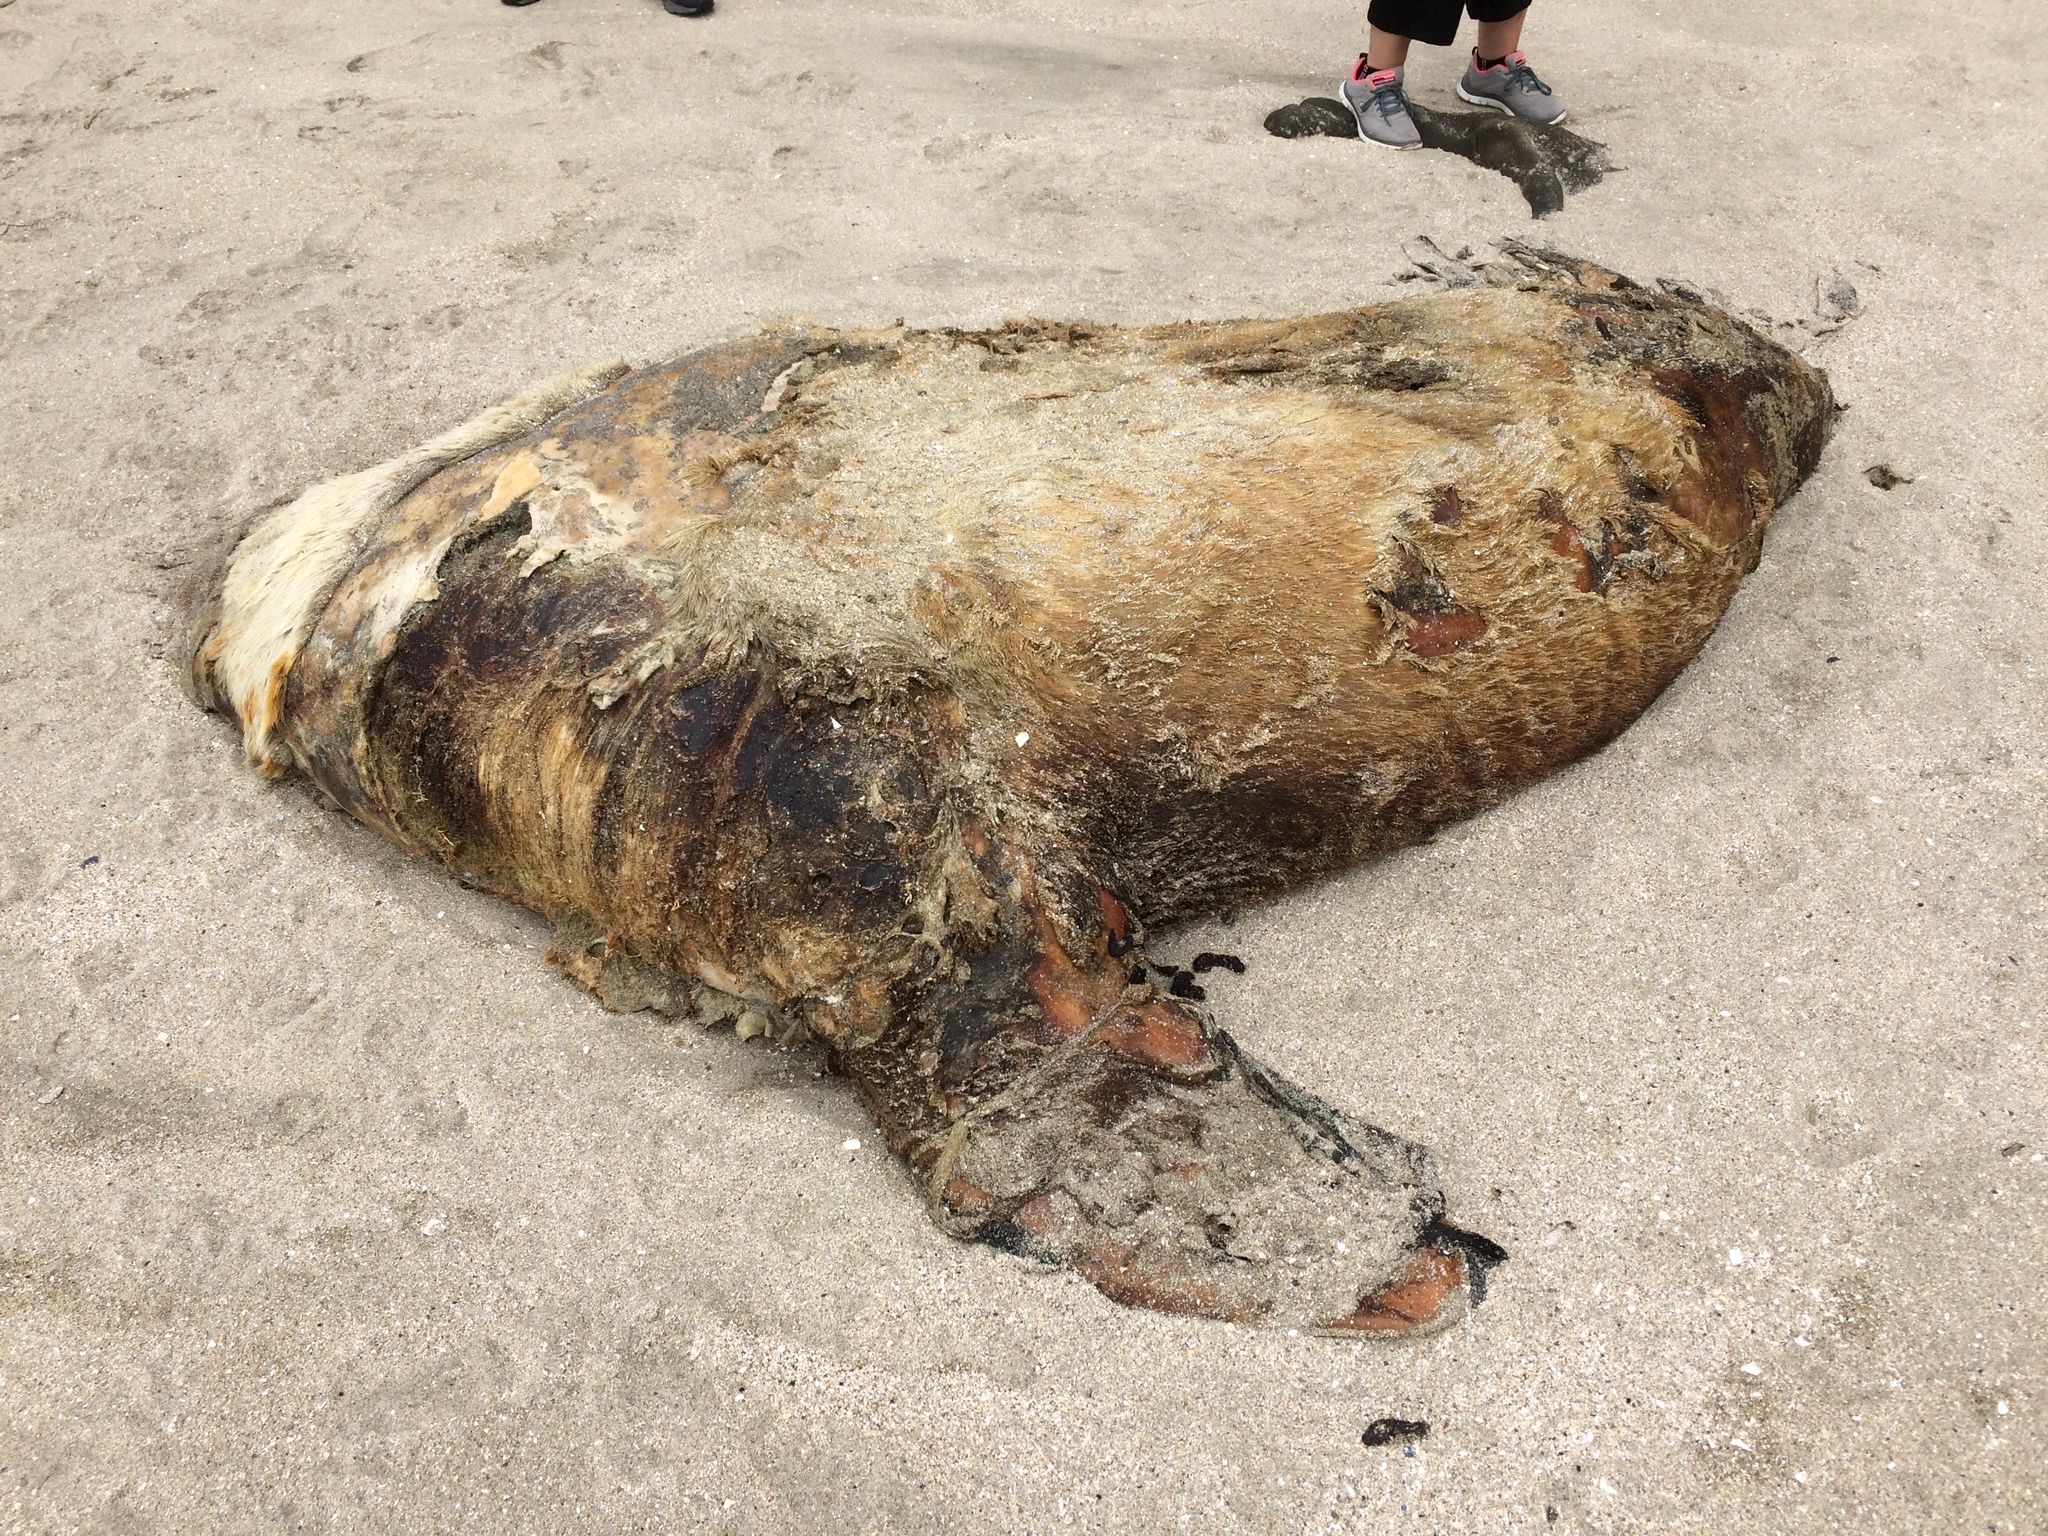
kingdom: Animalia
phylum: Chordata
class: Mammalia
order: Carnivora
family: Otariidae
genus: Eumetopias
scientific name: Eumetopias jubatus
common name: Steller sea lion
